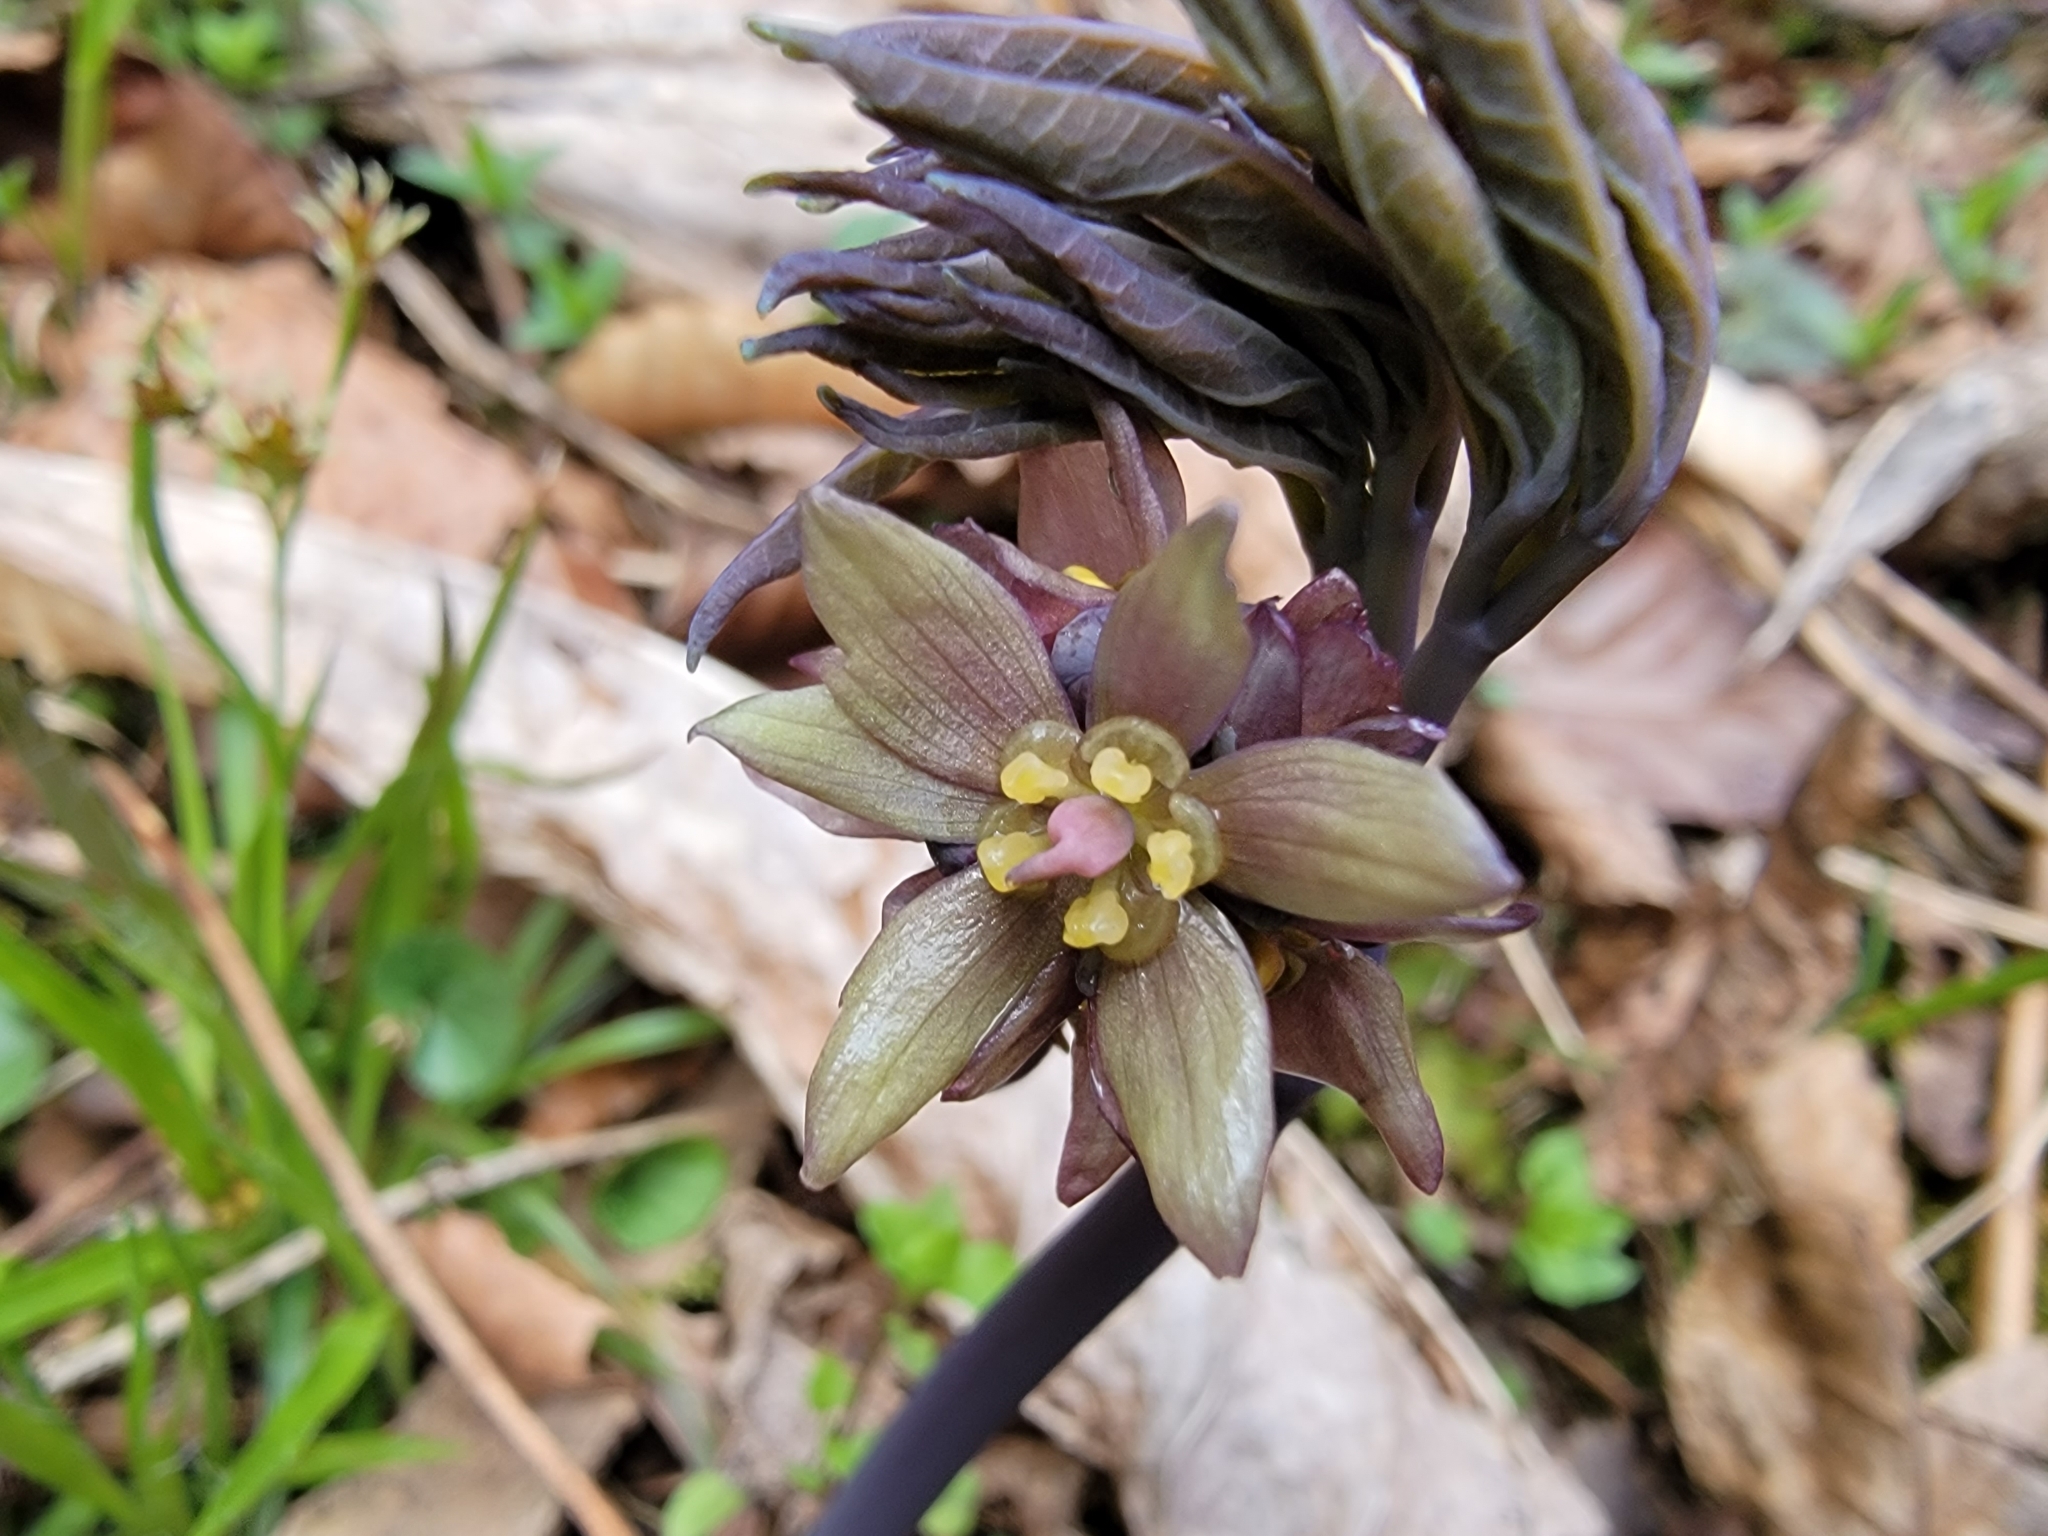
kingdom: Plantae
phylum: Tracheophyta
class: Magnoliopsida
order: Ranunculales
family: Berberidaceae
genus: Caulophyllum
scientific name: Caulophyllum giganteum
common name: Blue cohosh
